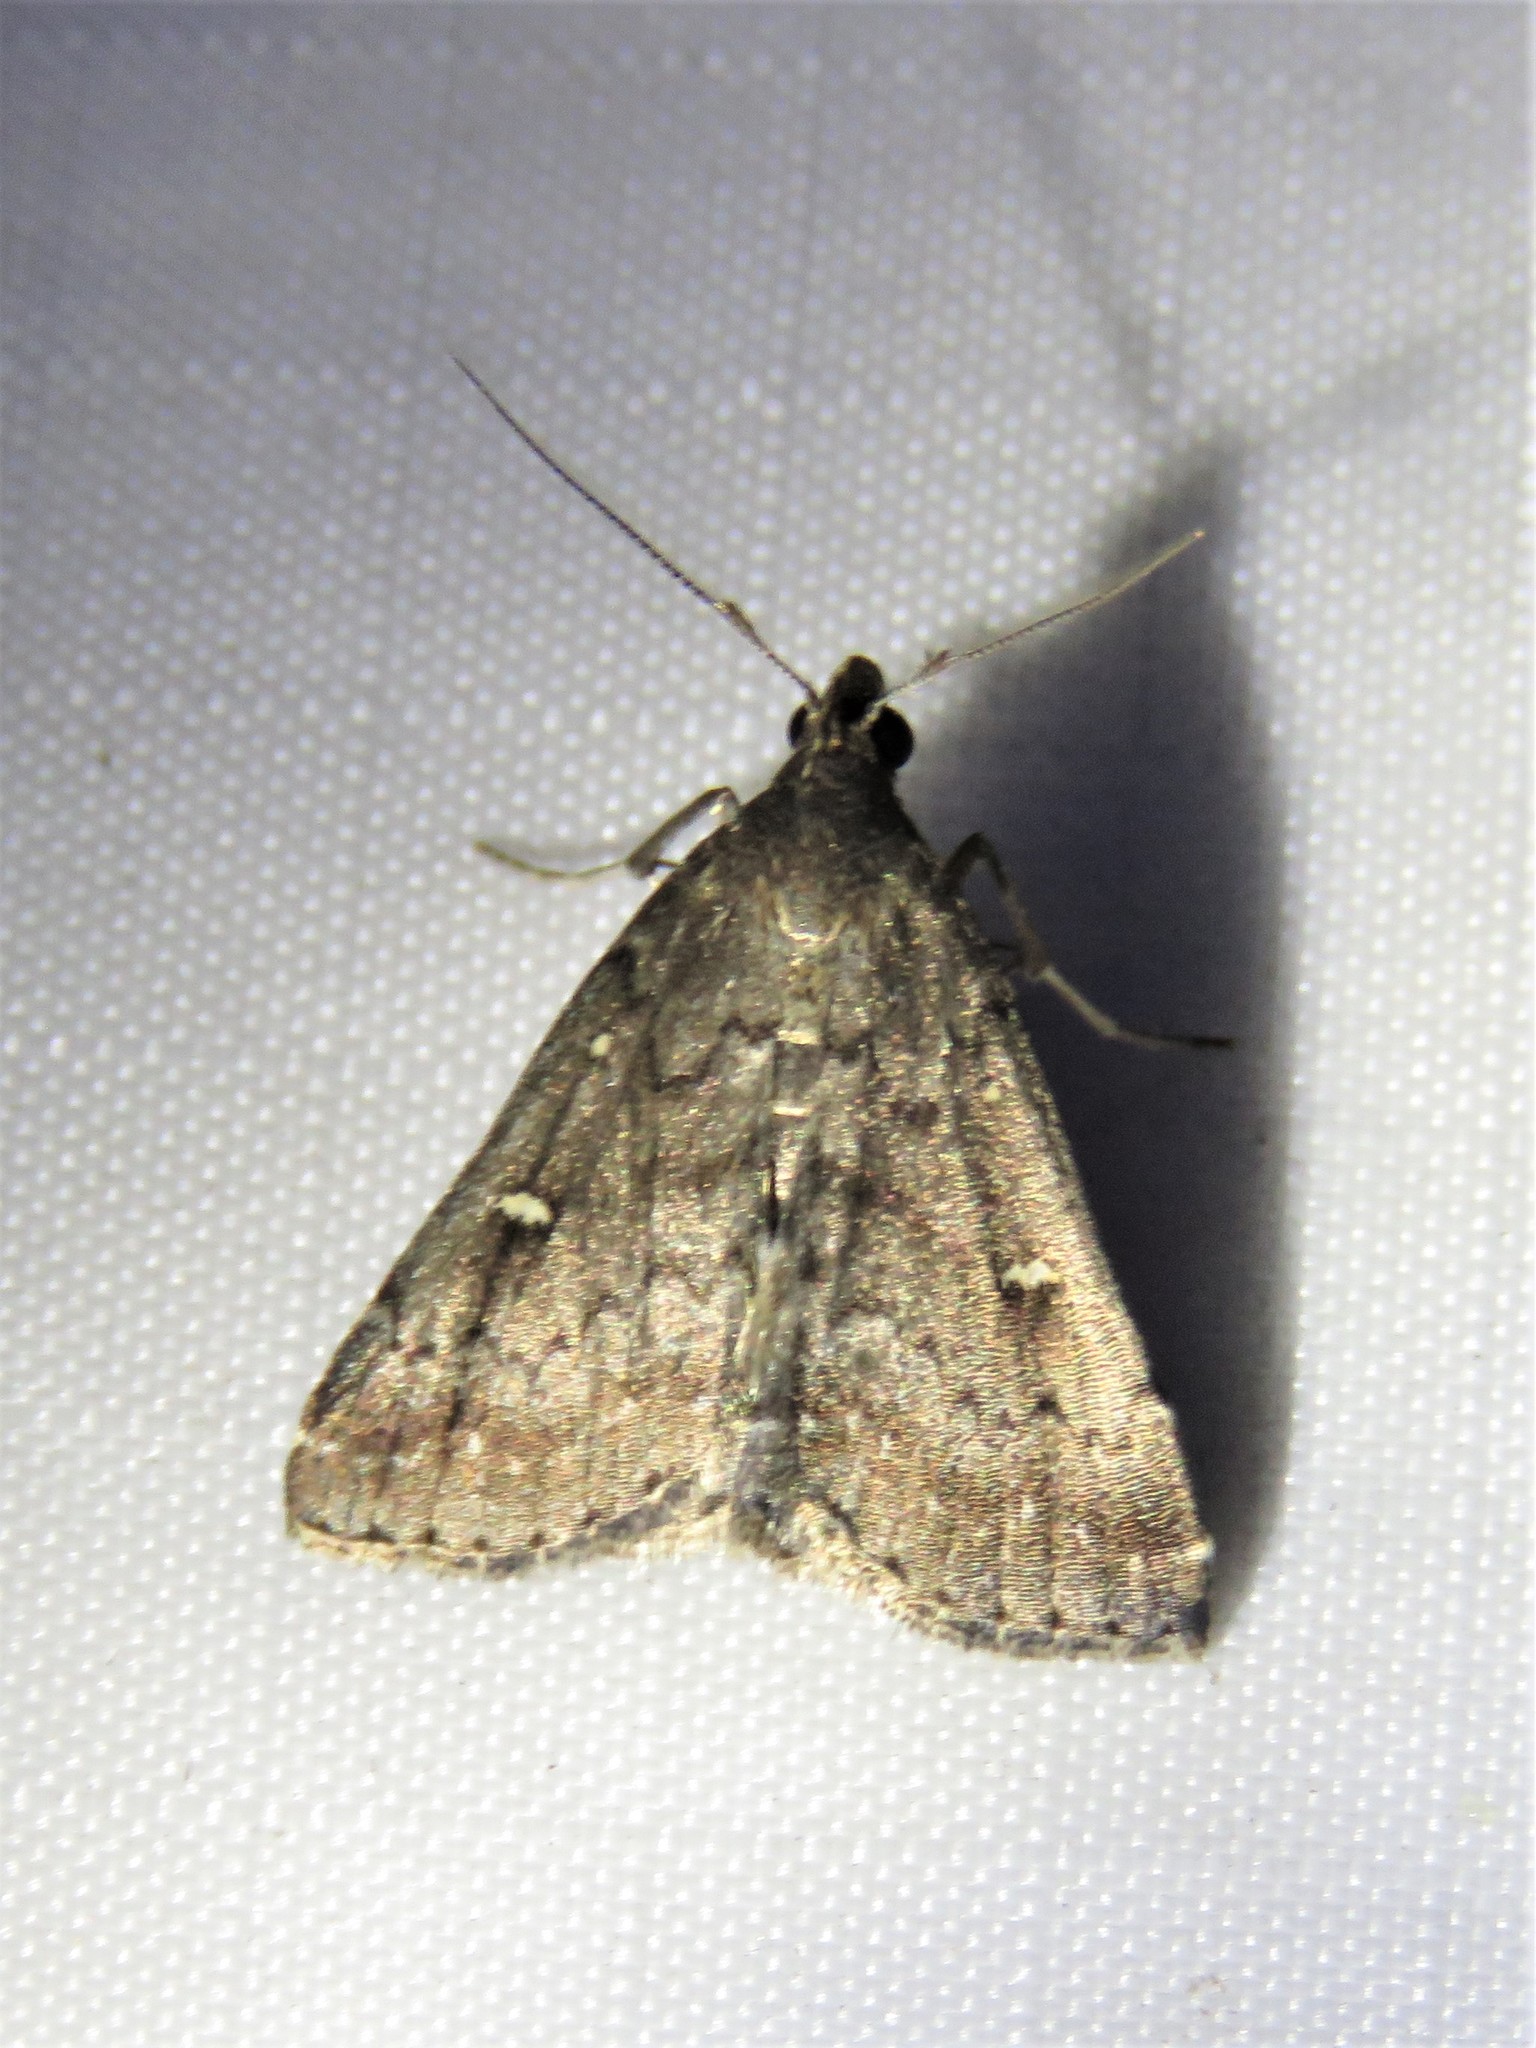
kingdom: Animalia
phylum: Arthropoda
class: Insecta
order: Lepidoptera
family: Erebidae
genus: Tetanolita
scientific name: Tetanolita mynesalis
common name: Smoky tetanolita moth
